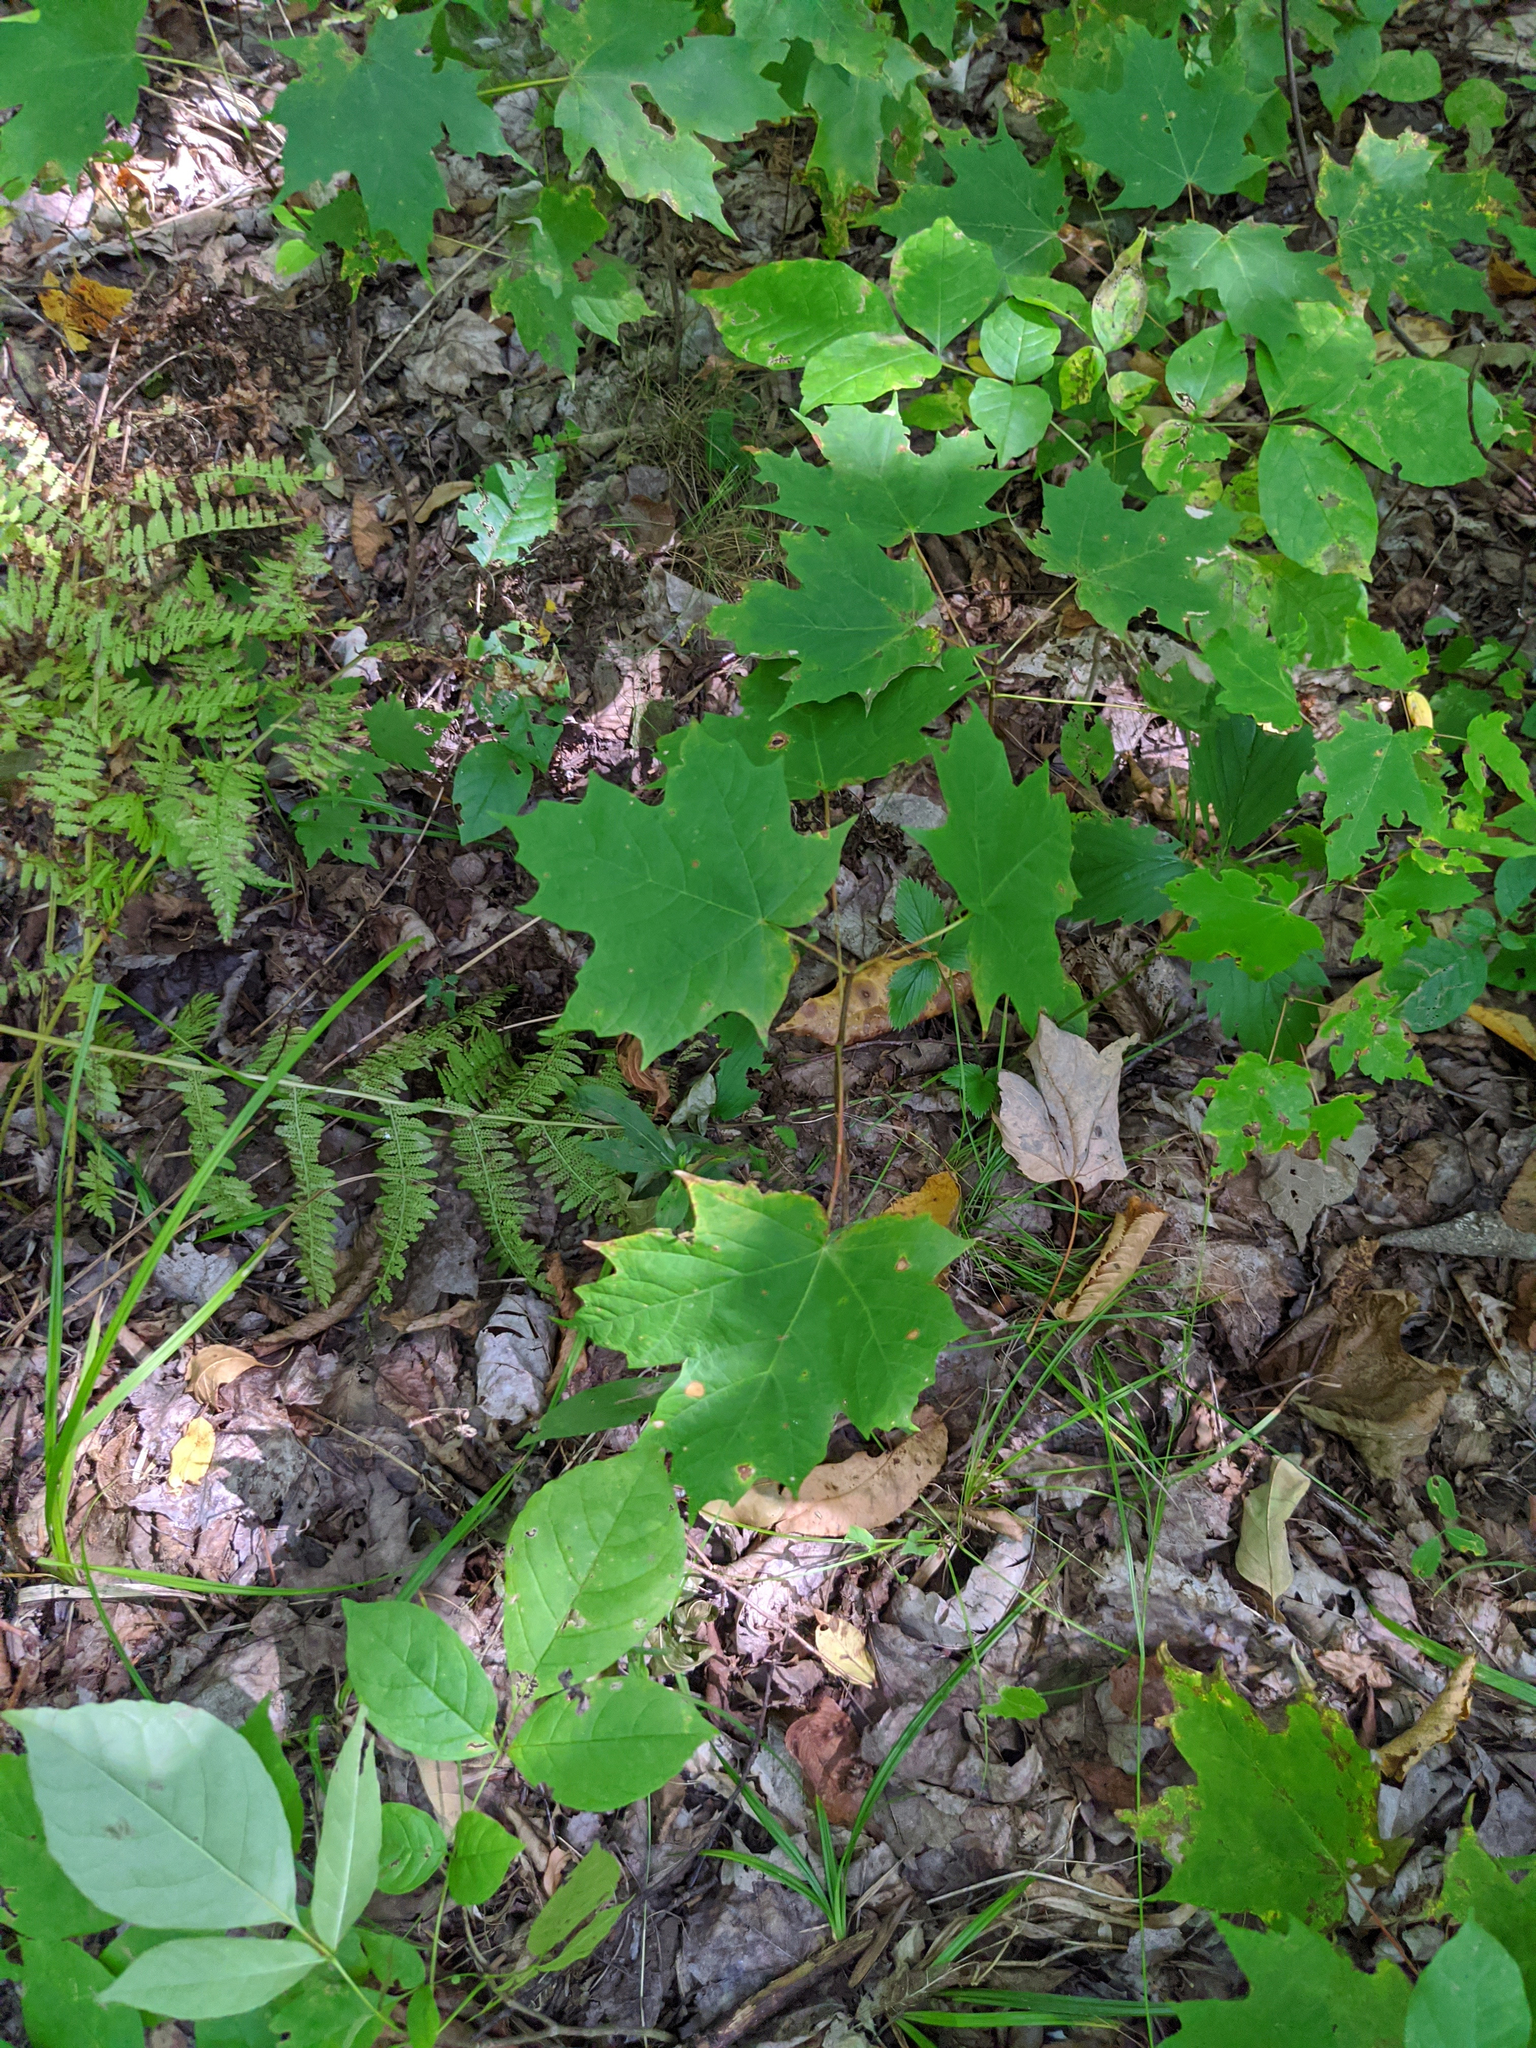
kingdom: Plantae
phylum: Tracheophyta
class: Magnoliopsida
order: Sapindales
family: Sapindaceae
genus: Acer
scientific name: Acer saccharum
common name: Sugar maple
